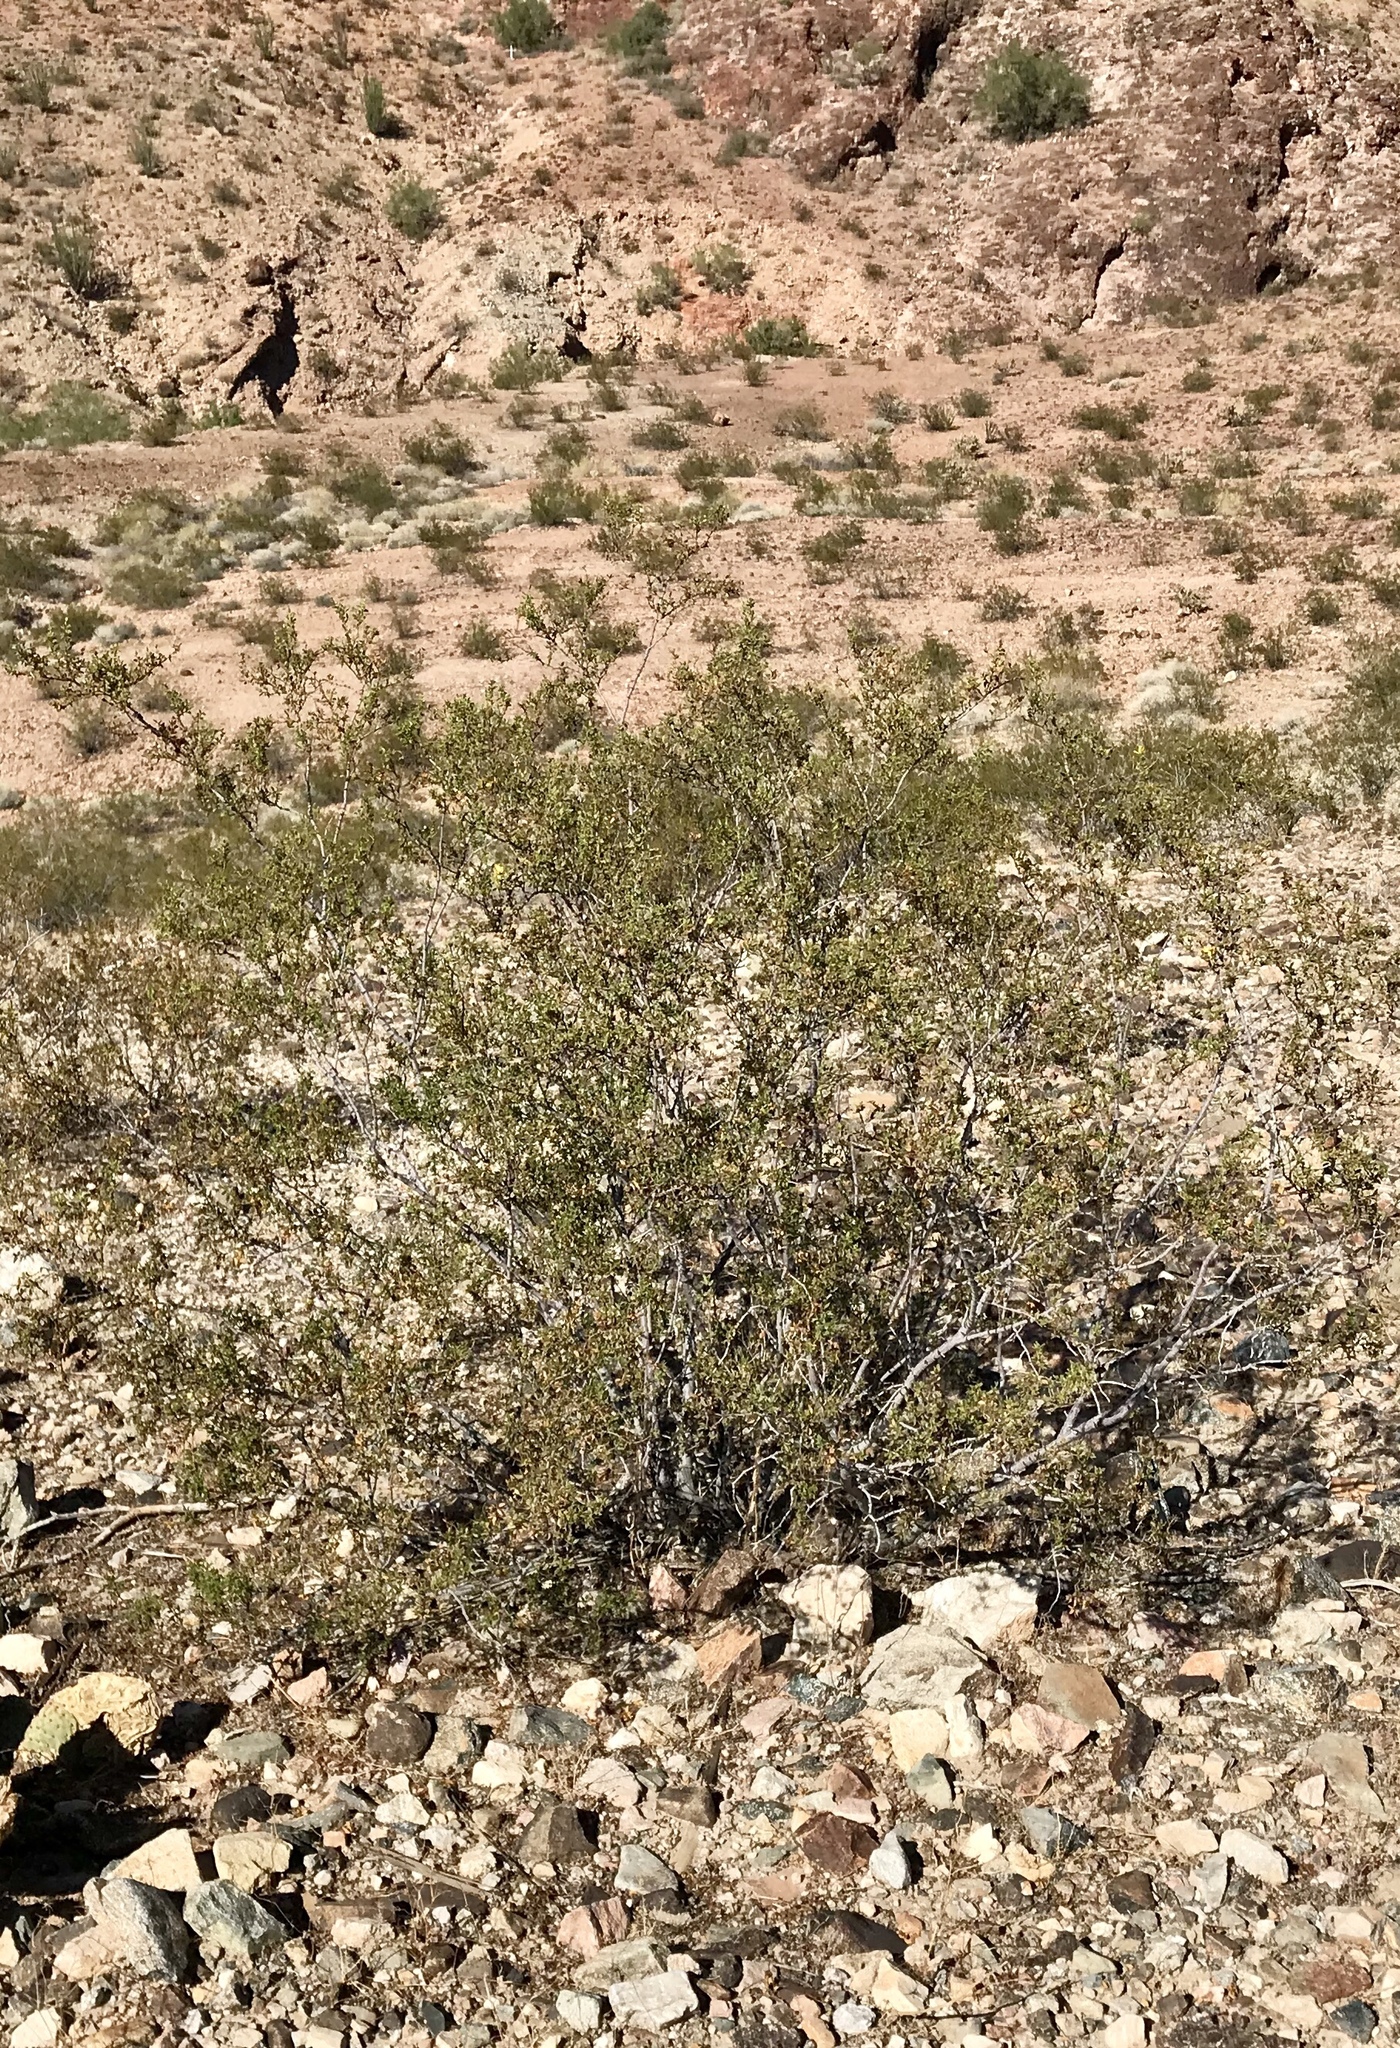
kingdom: Plantae
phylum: Tracheophyta
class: Magnoliopsida
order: Zygophyllales
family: Zygophyllaceae
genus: Larrea
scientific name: Larrea tridentata
